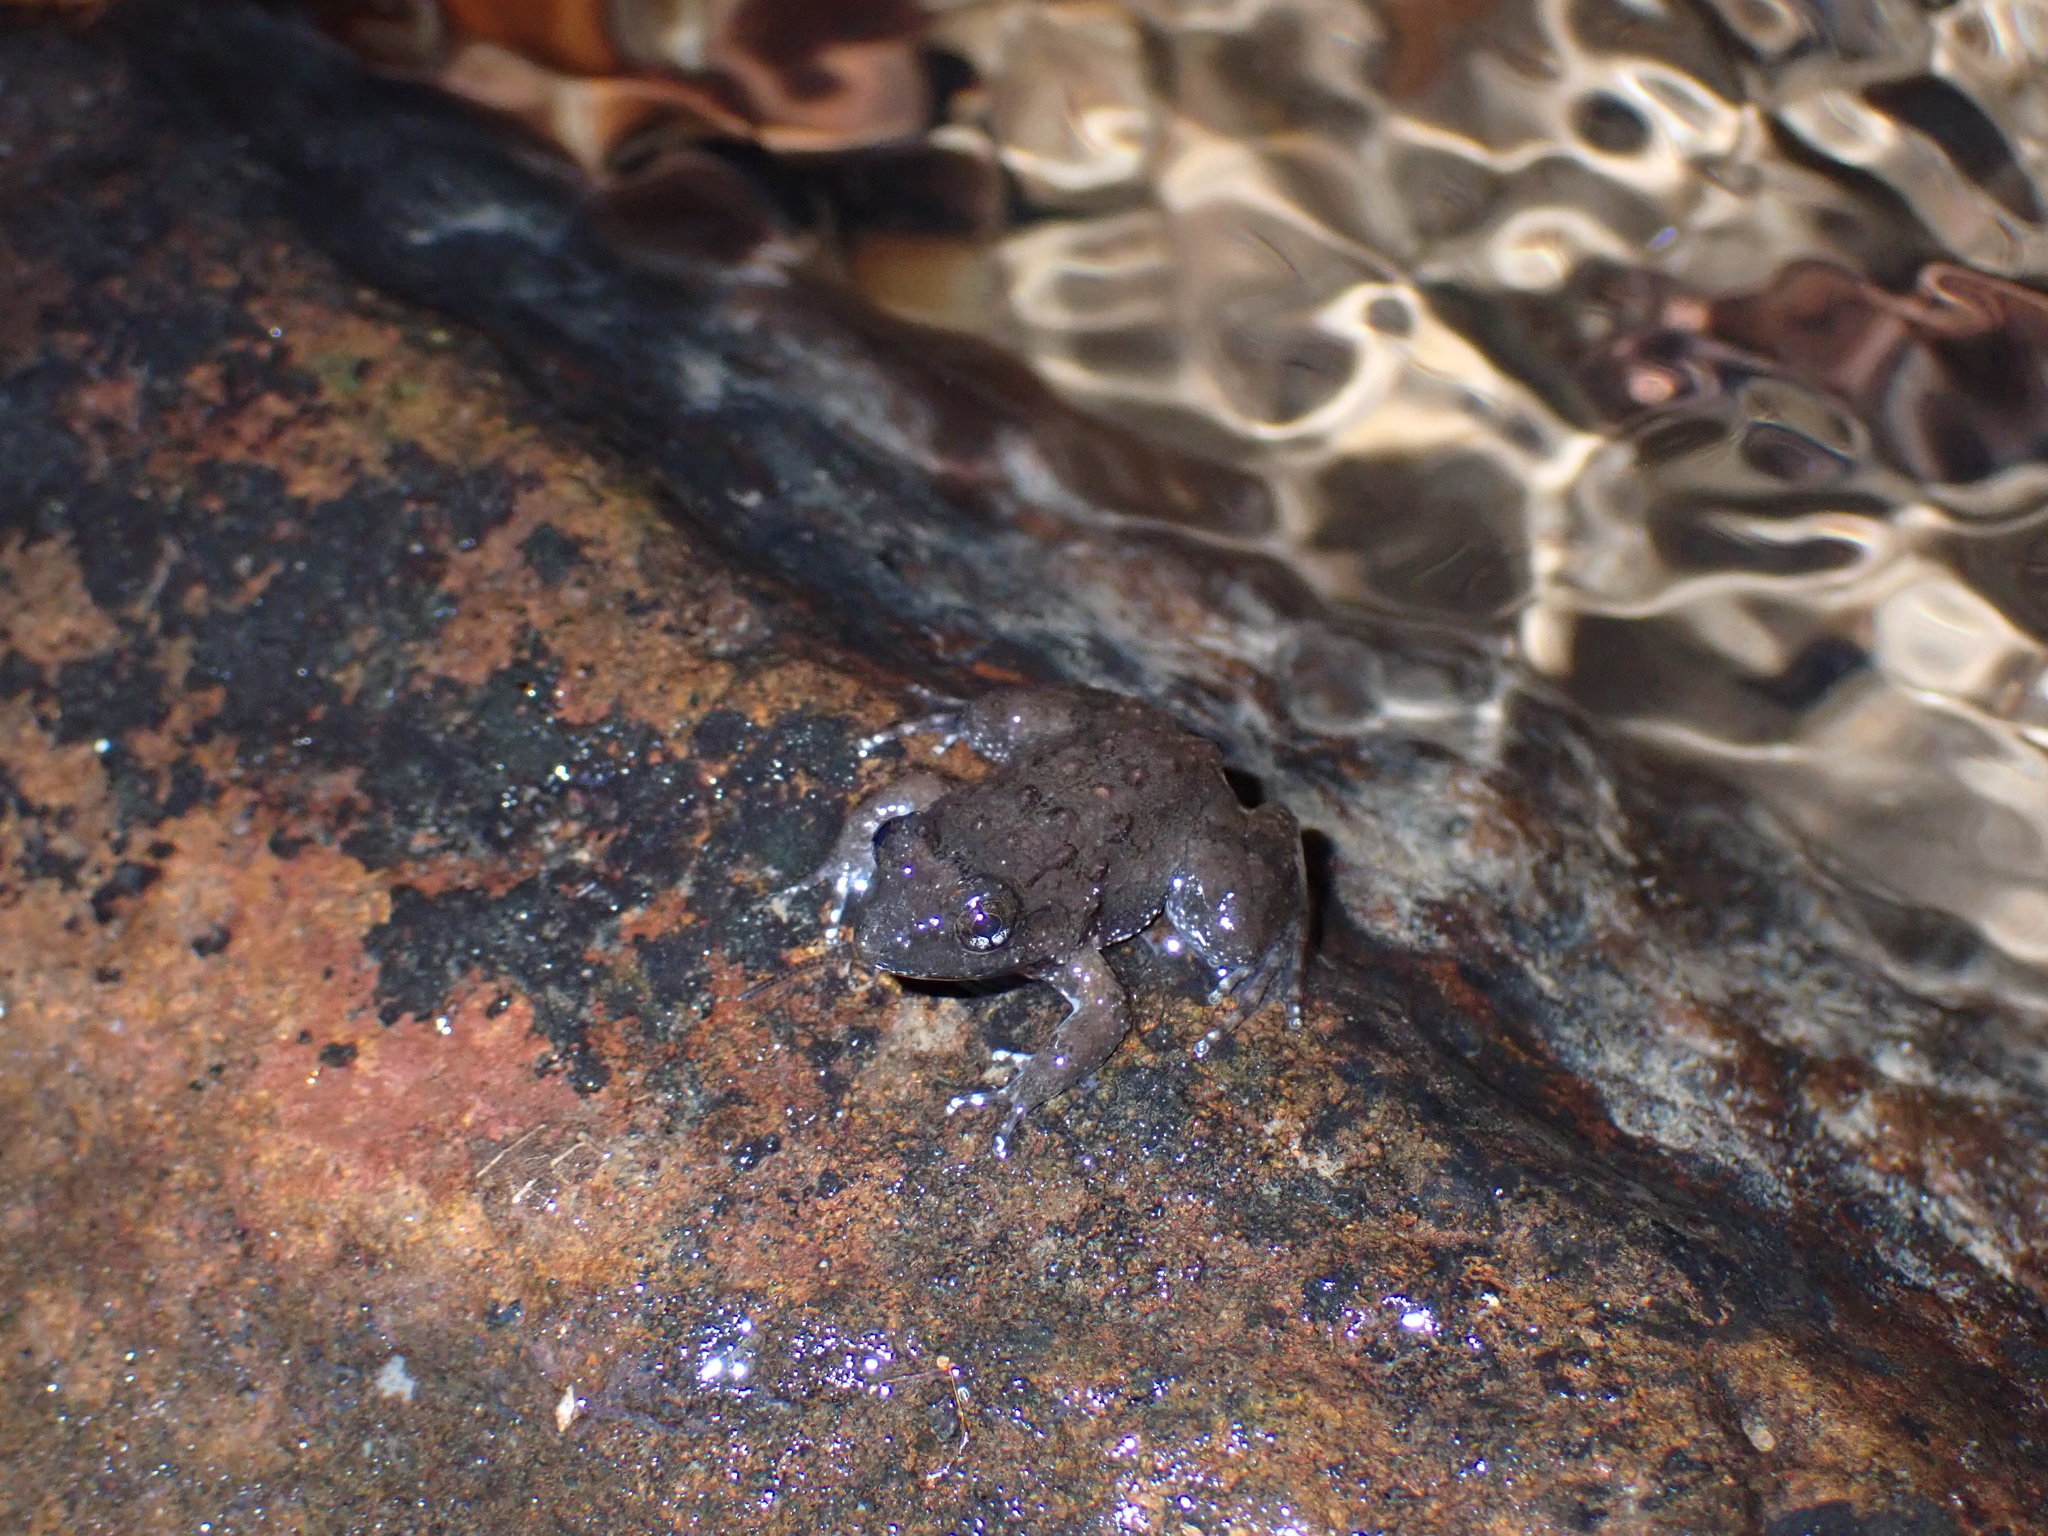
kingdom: Animalia
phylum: Chordata
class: Amphibia
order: Anura
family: Dicroglossidae
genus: Limnonectes
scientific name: Limnonectes lauhachindai
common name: Lauhachinda's fanged frog
